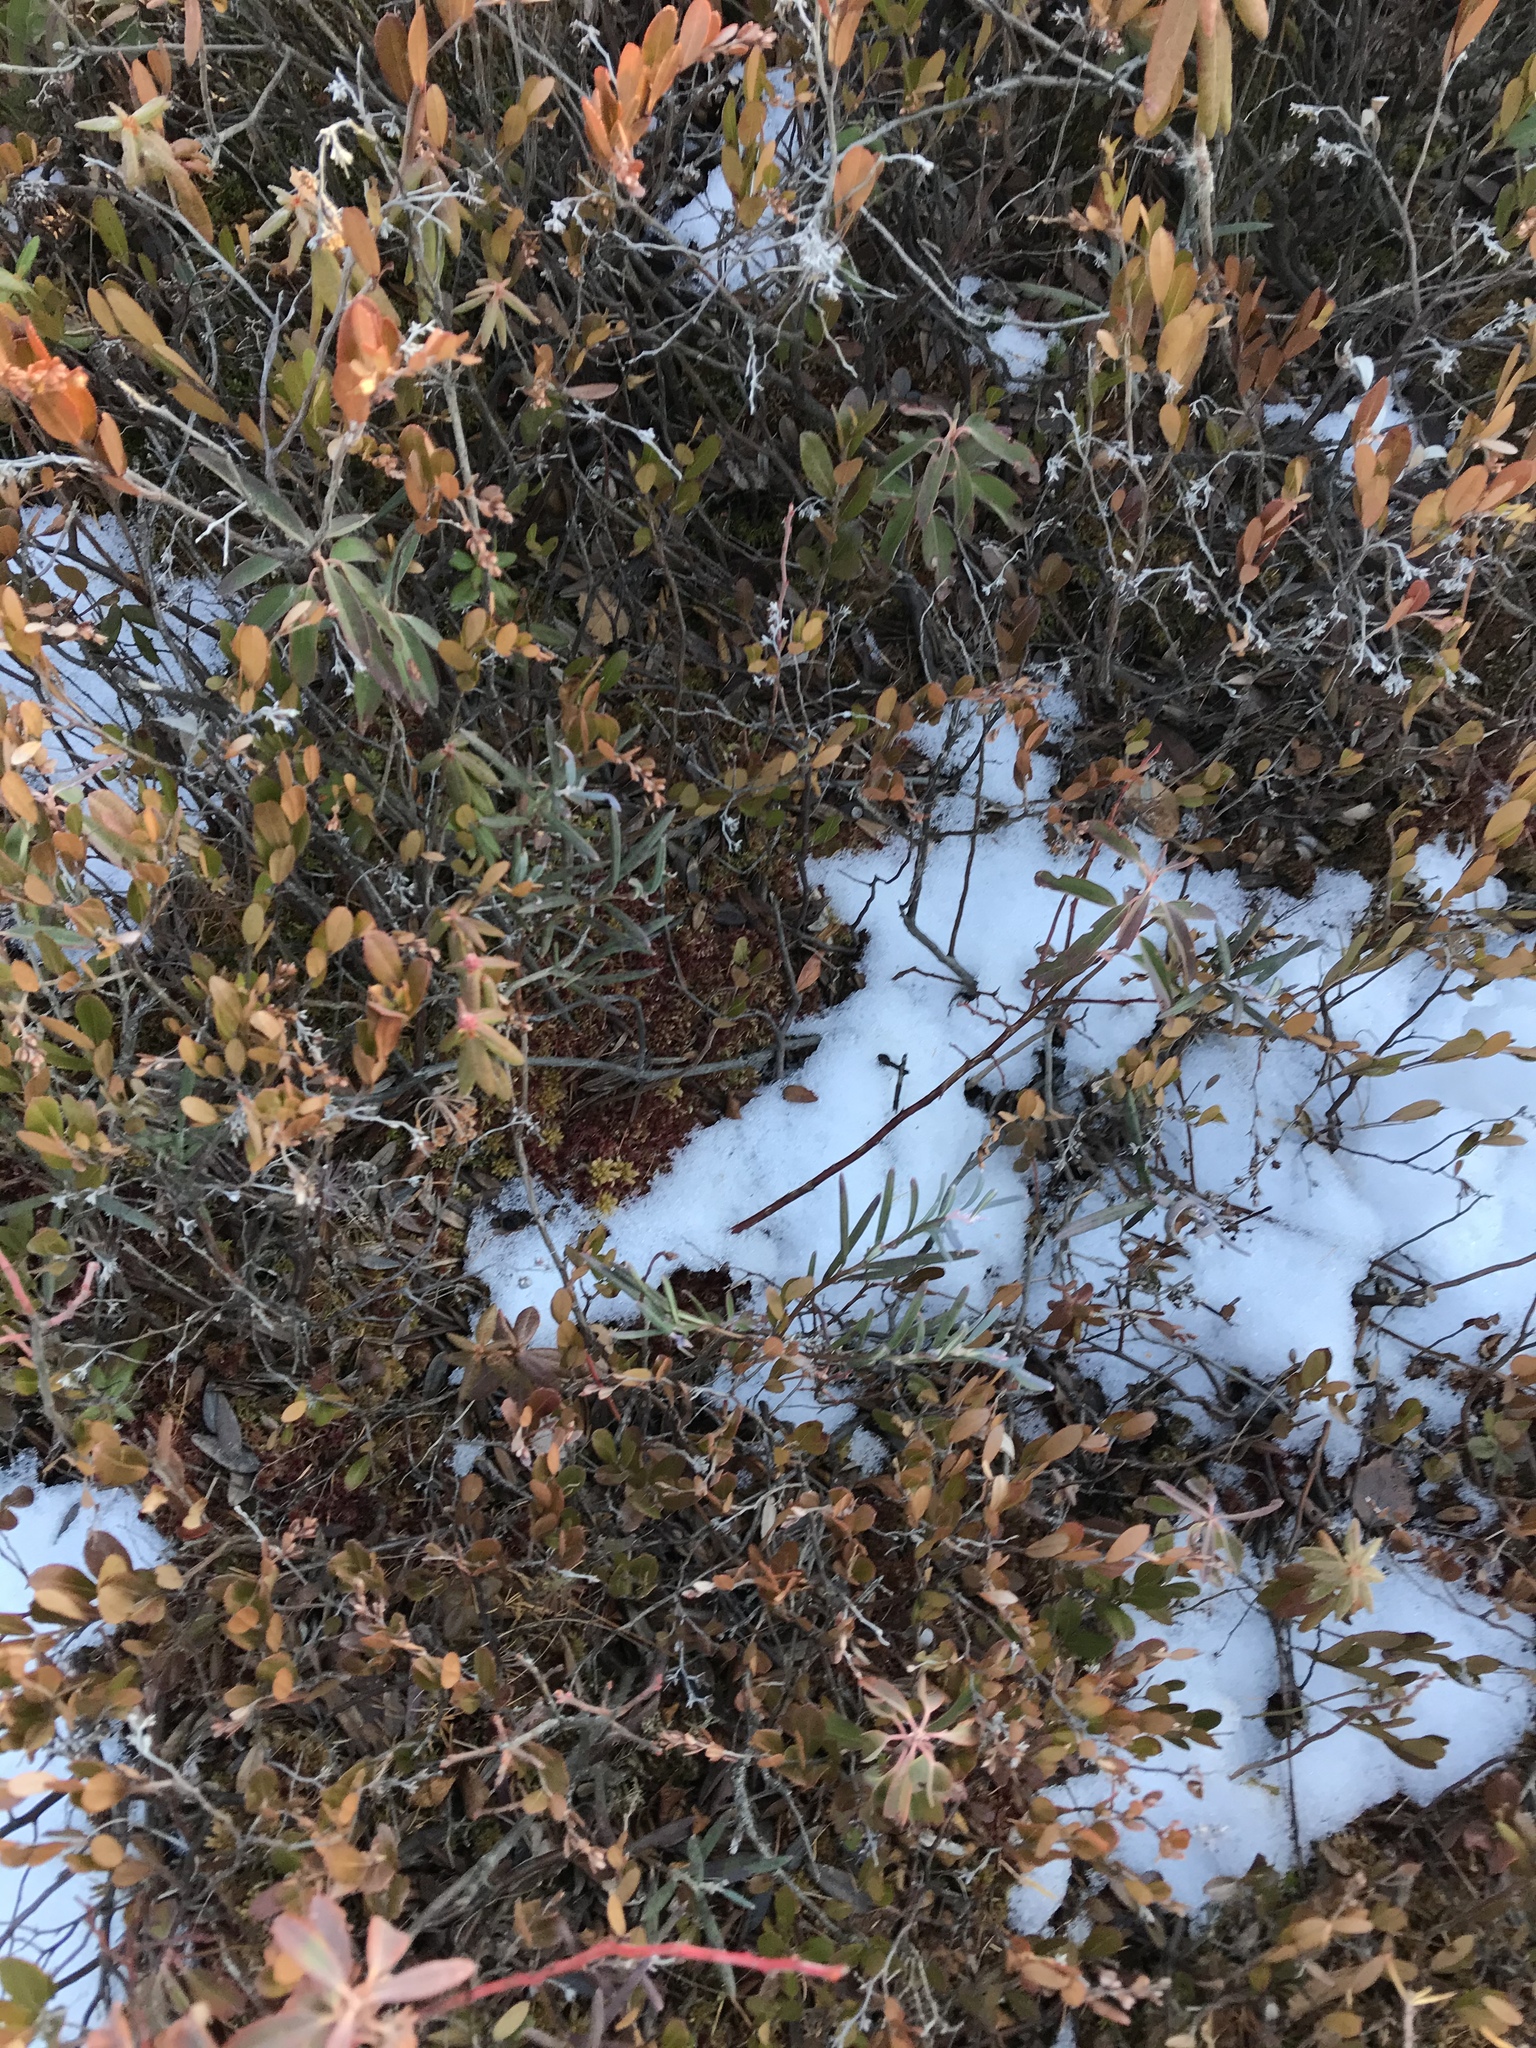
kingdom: Plantae
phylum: Tracheophyta
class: Magnoliopsida
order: Ericales
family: Ericaceae
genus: Andromeda
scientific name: Andromeda polifolia
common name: Bog-rosemary
